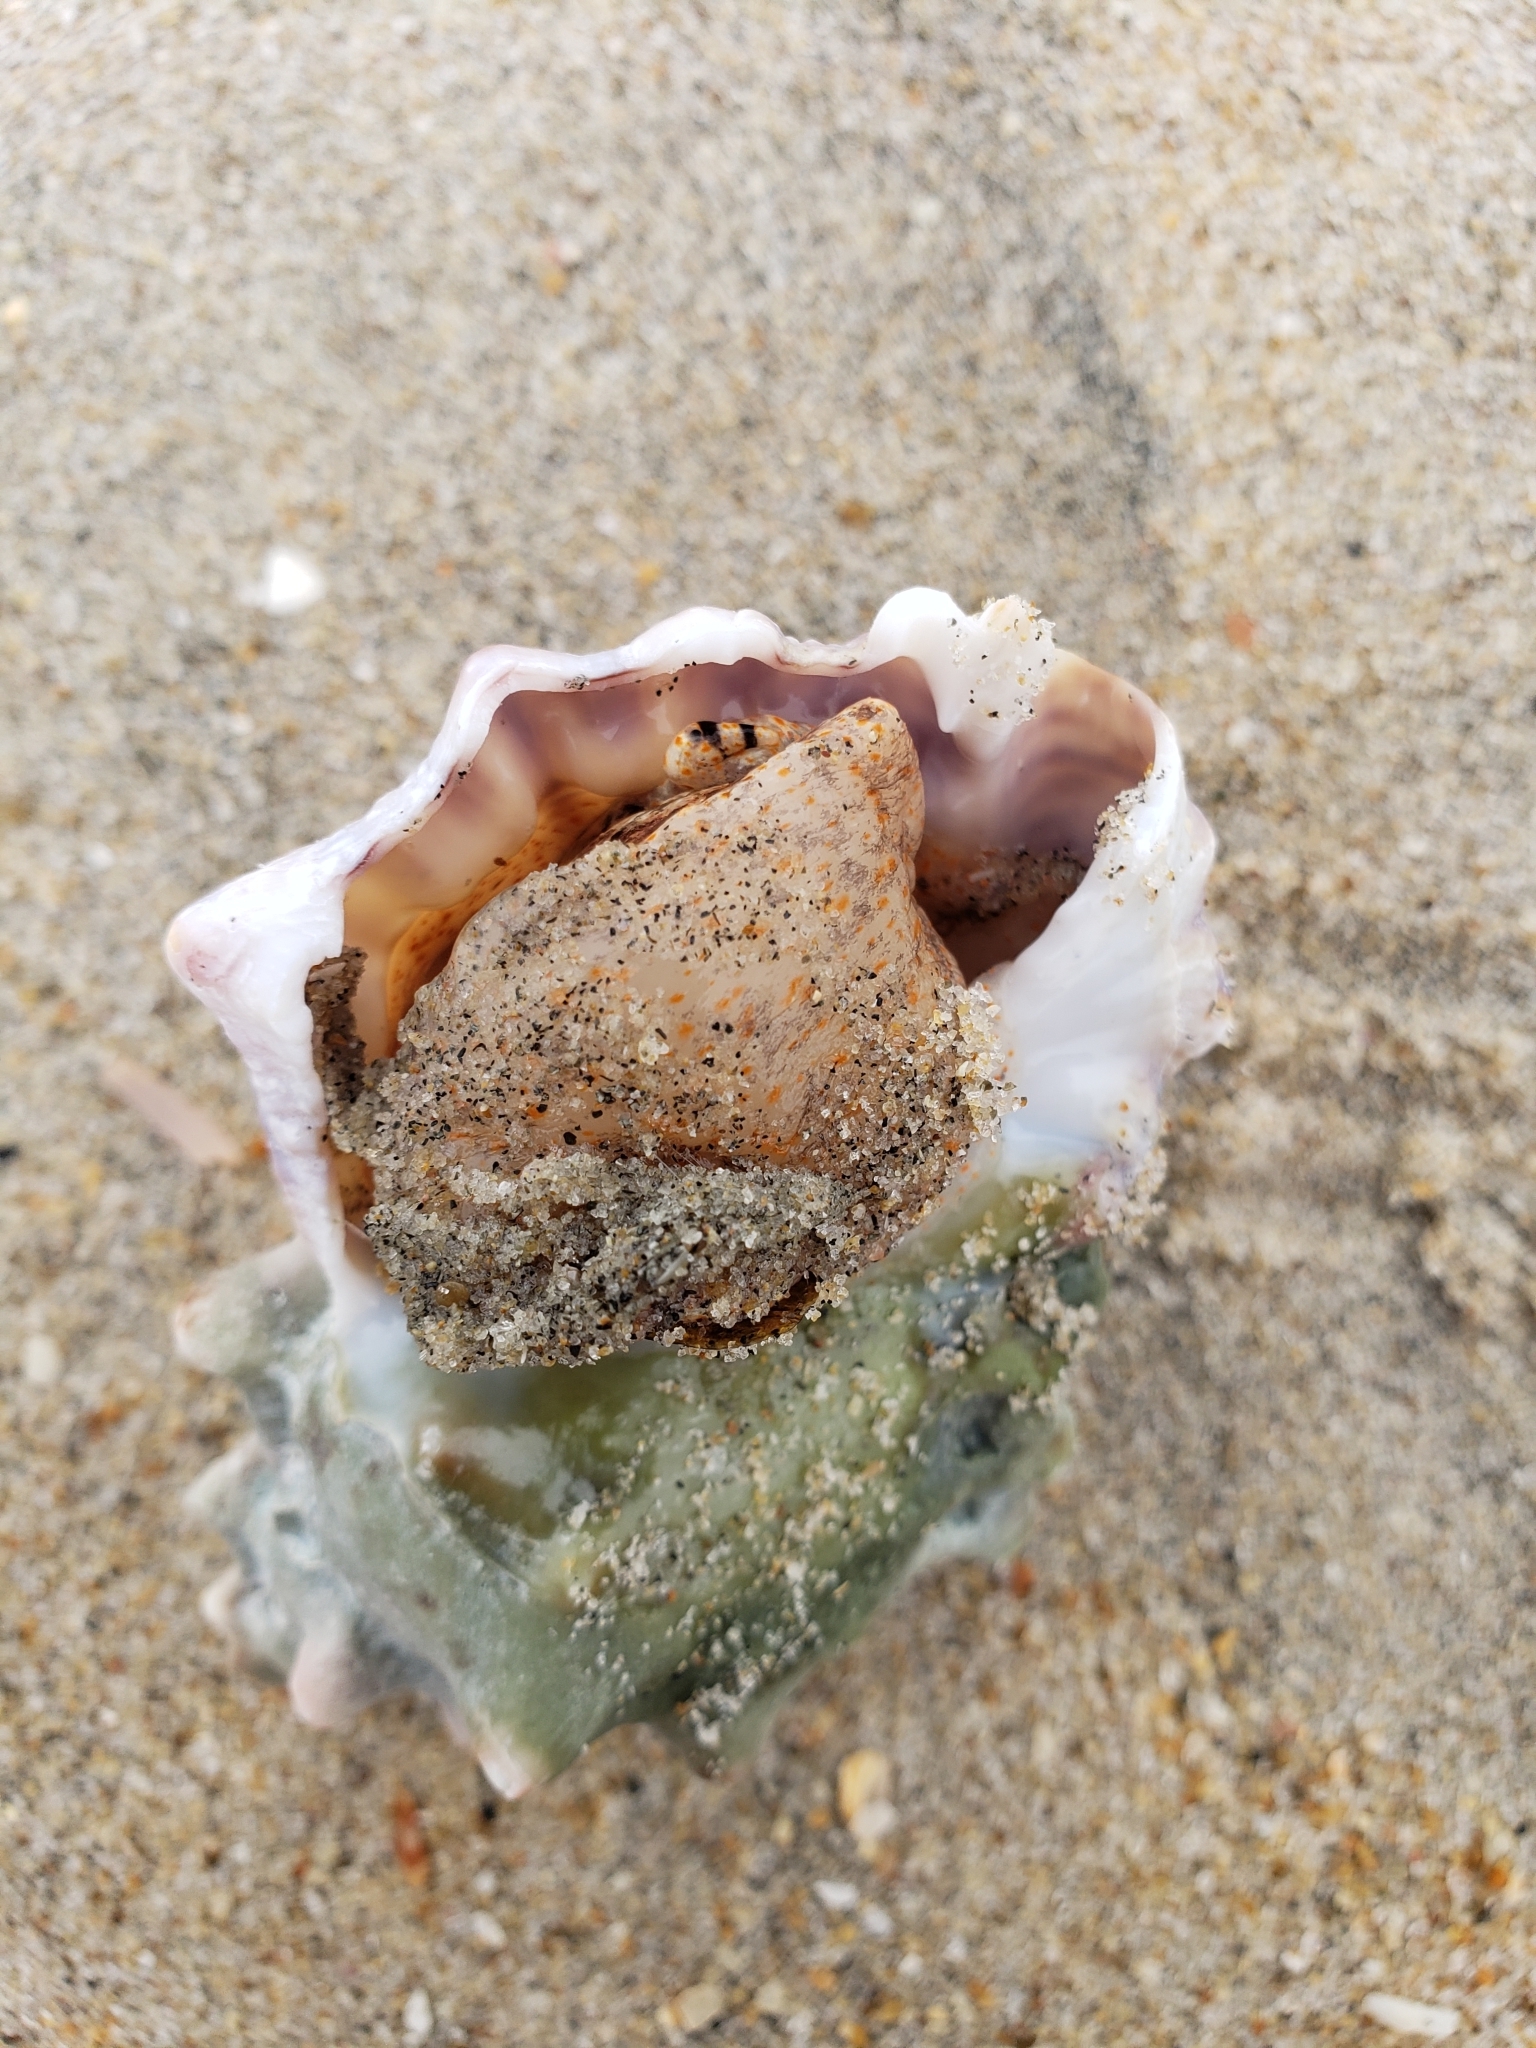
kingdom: Animalia
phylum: Mollusca
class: Gastropoda
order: Littorinimorpha
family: Bursidae
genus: Crossata
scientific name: Crossata californica
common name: California frogsnail
